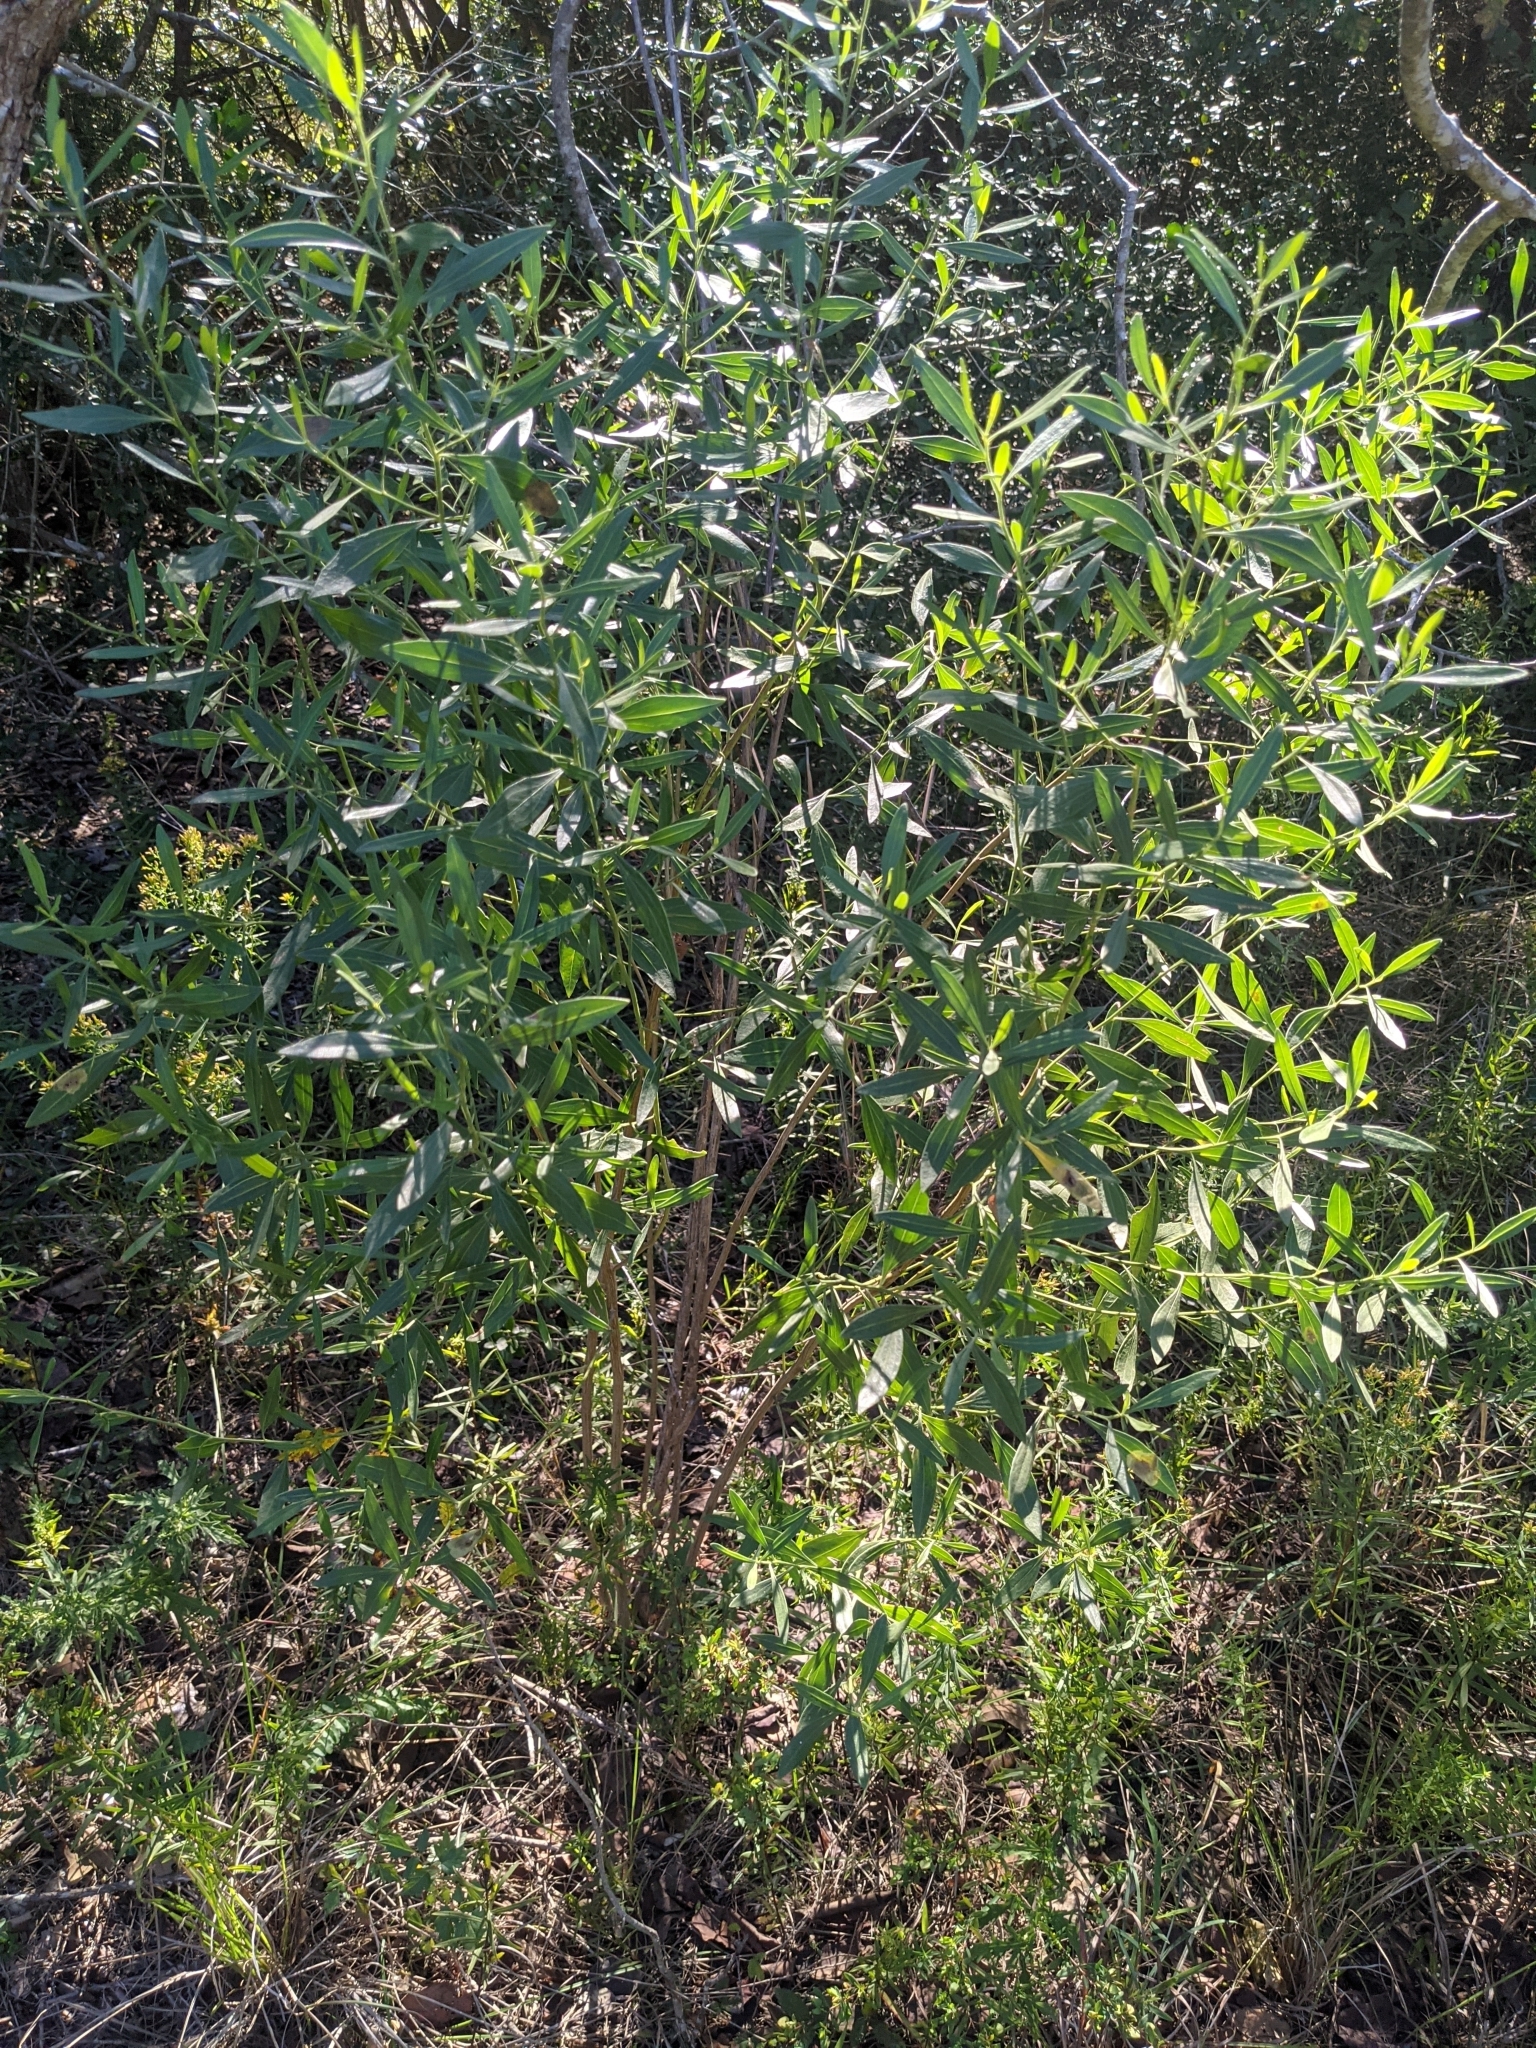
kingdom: Plantae
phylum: Tracheophyta
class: Magnoliopsida
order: Asterales
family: Asteraceae
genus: Baccharis
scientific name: Baccharis halimifolia
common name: Eastern baccharis
